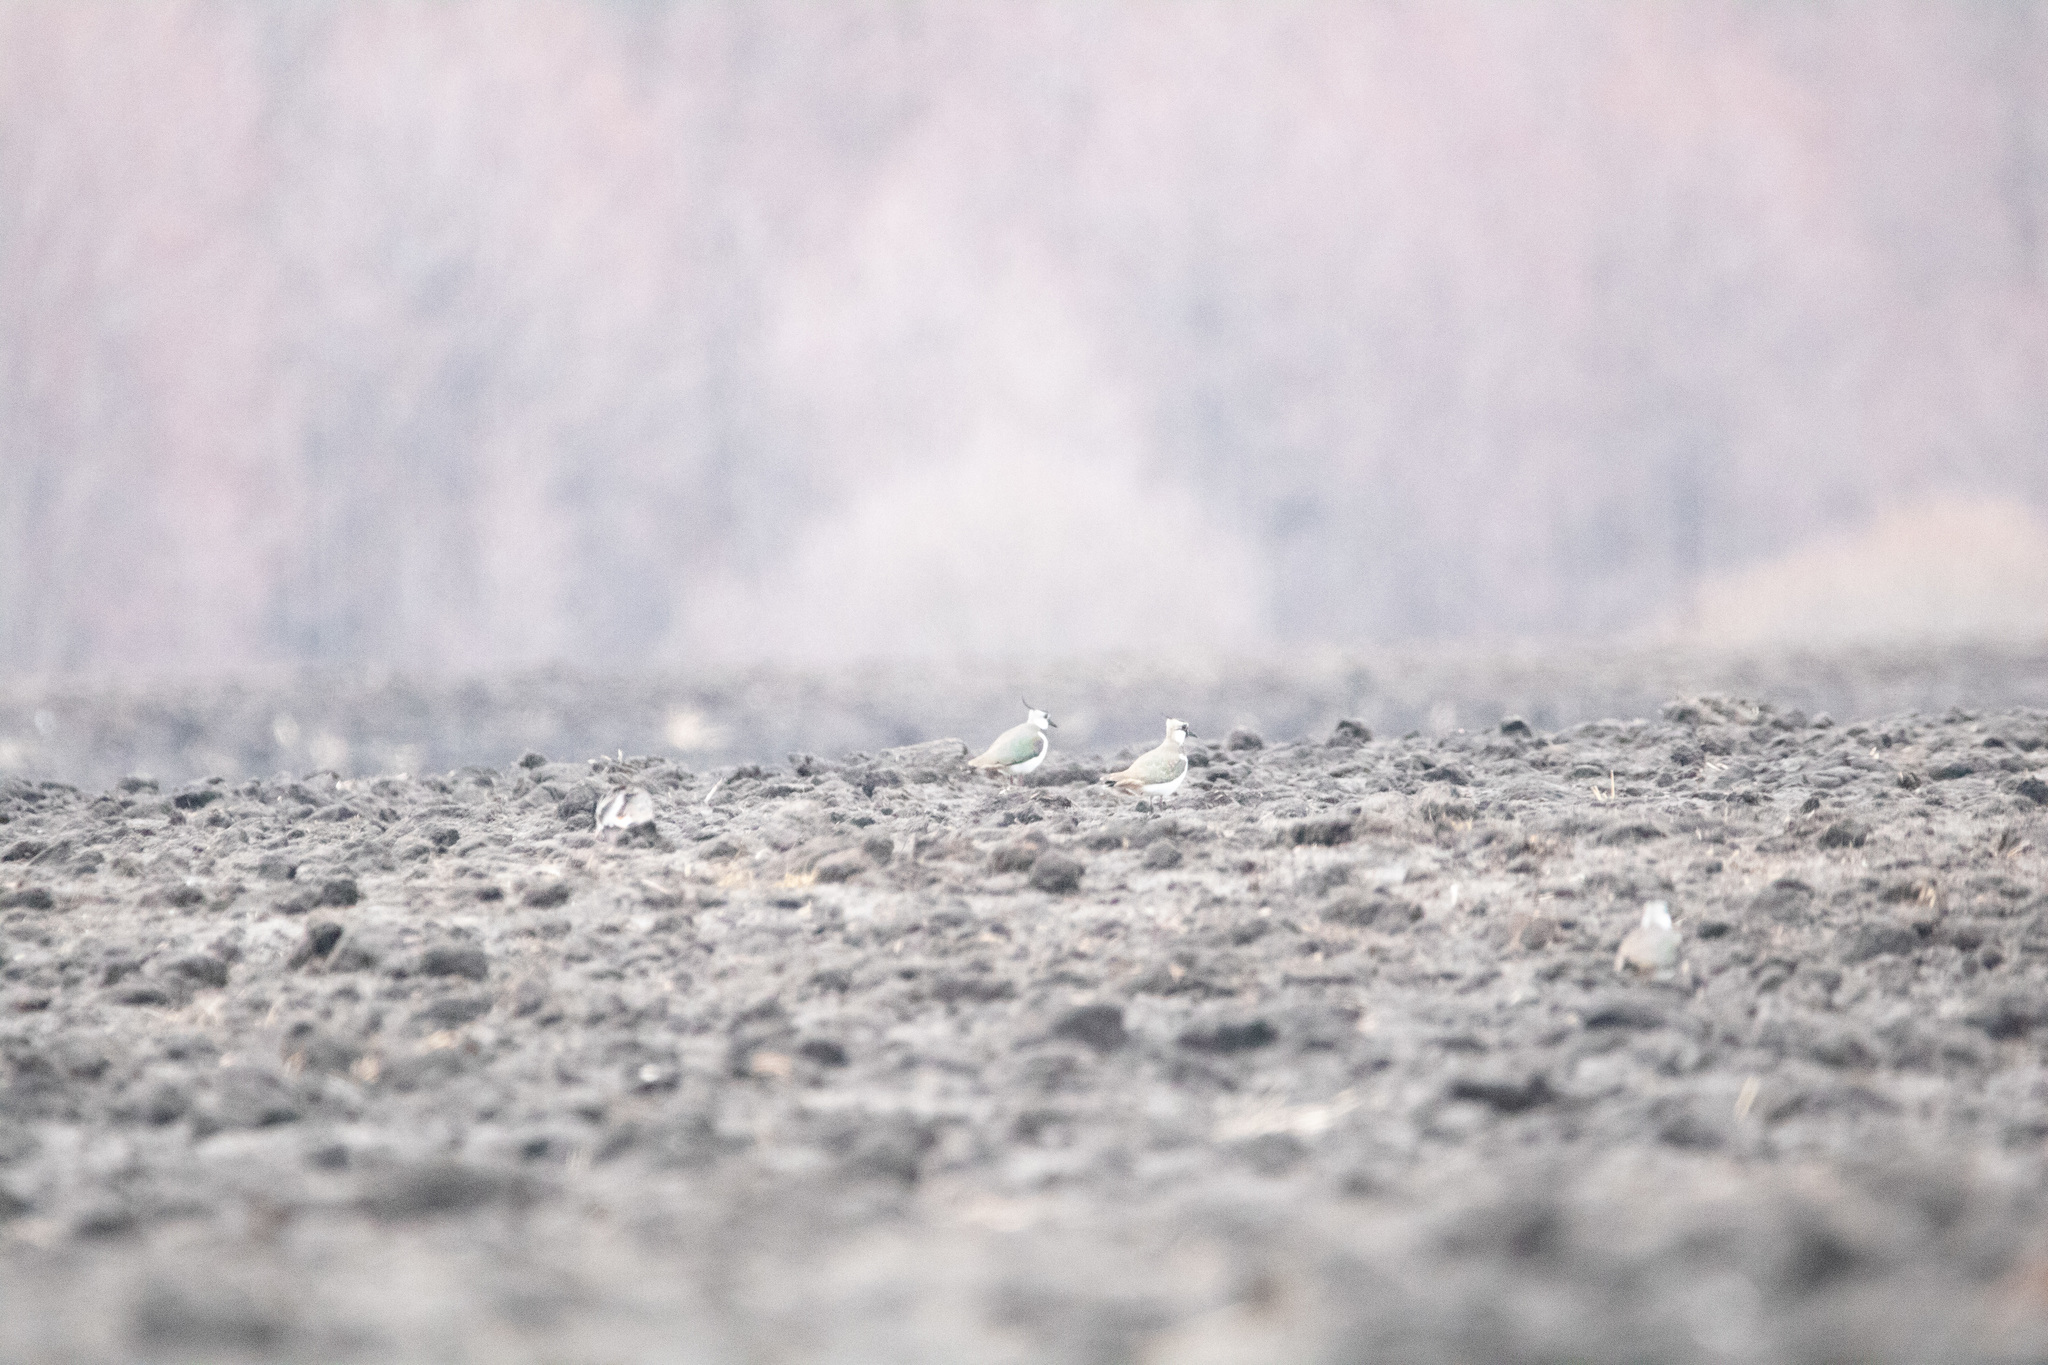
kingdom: Animalia
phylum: Chordata
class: Aves
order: Charadriiformes
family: Charadriidae
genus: Vanellus
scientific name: Vanellus vanellus
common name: Northern lapwing
